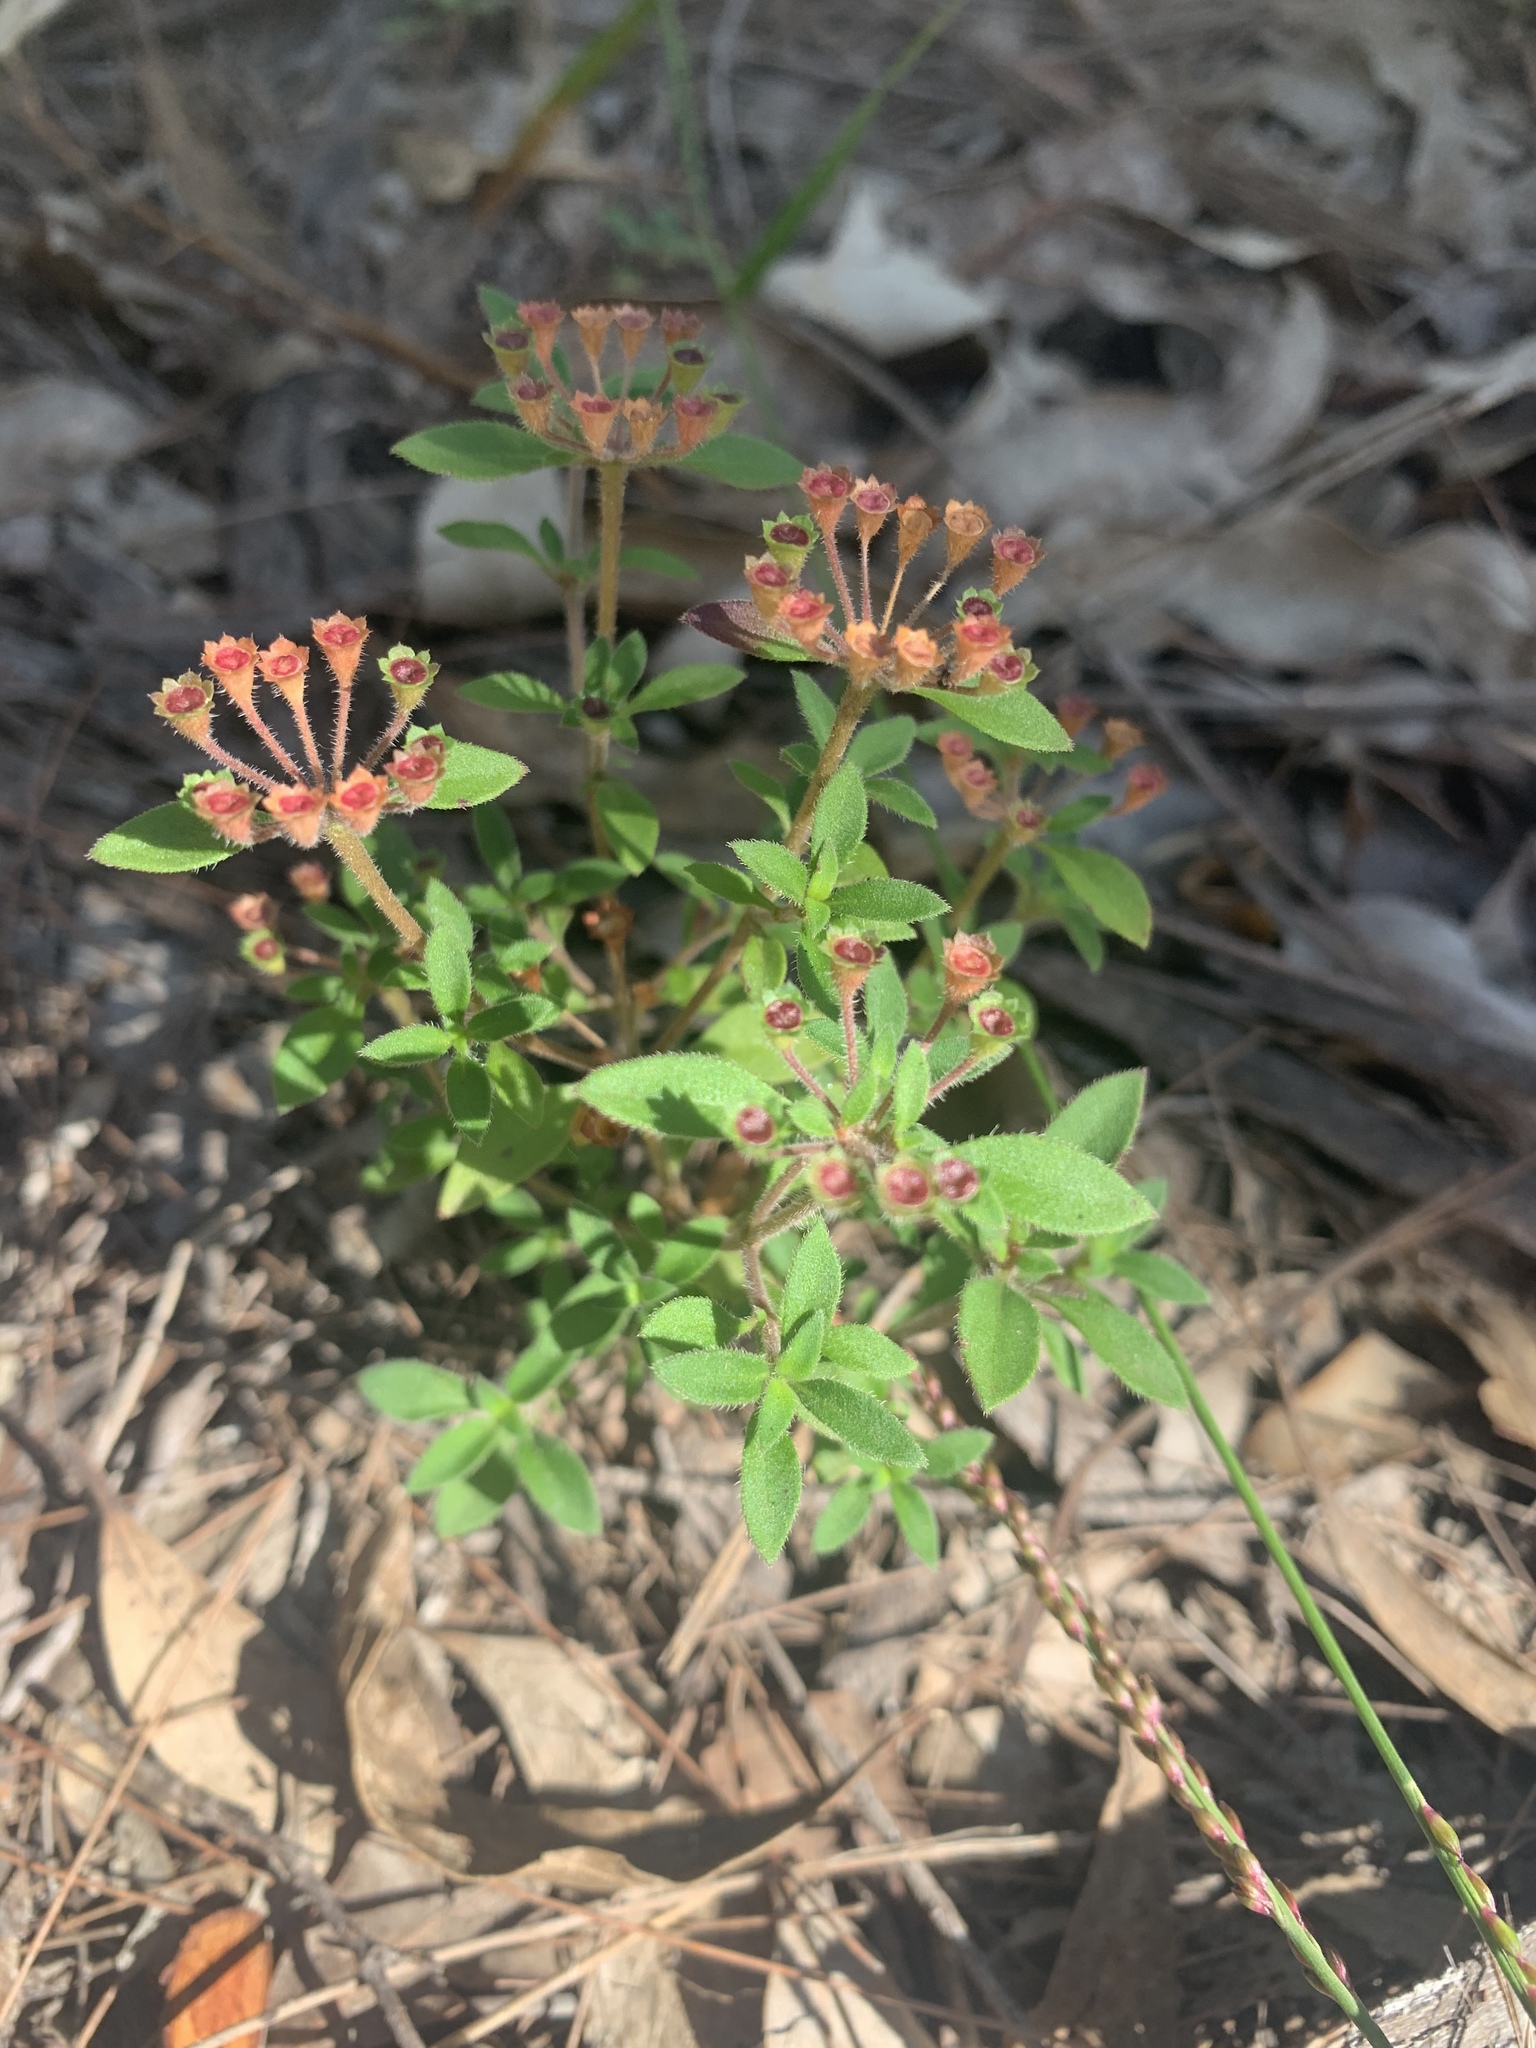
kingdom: Plantae
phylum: Tracheophyta
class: Magnoliopsida
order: Gentianales
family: Rubiaceae
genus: Pomax
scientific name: Pomax umbellata
